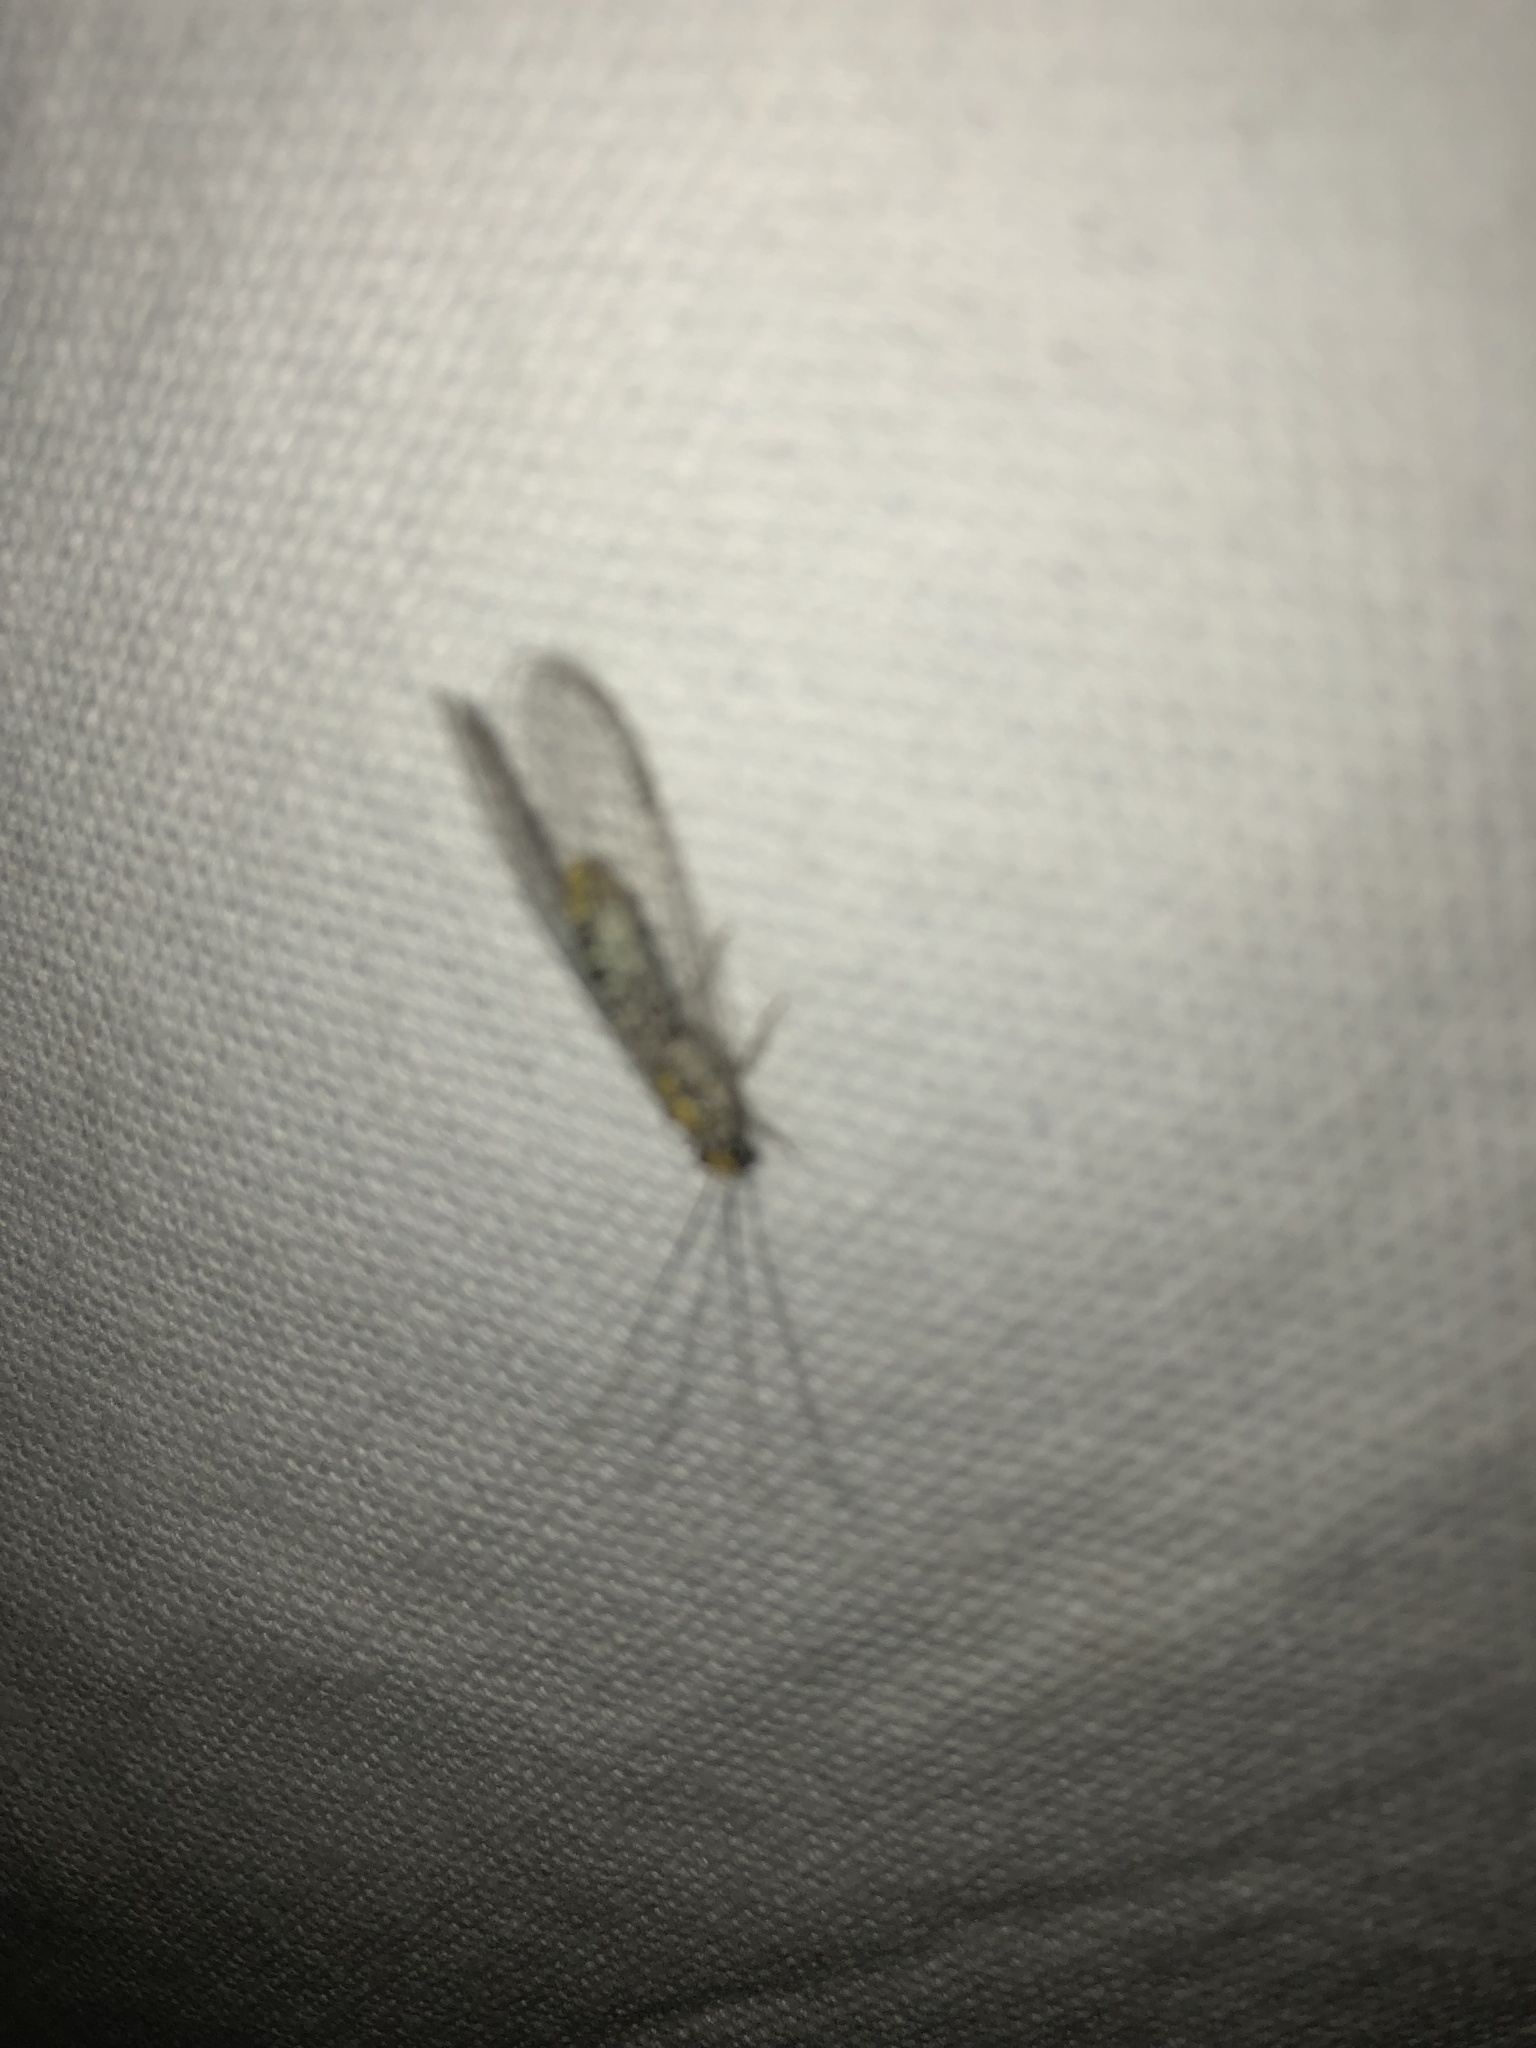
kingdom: Animalia
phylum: Arthropoda
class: Insecta
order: Neuroptera
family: Chrysopidae
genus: Abachrysa
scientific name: Abachrysa eureka
